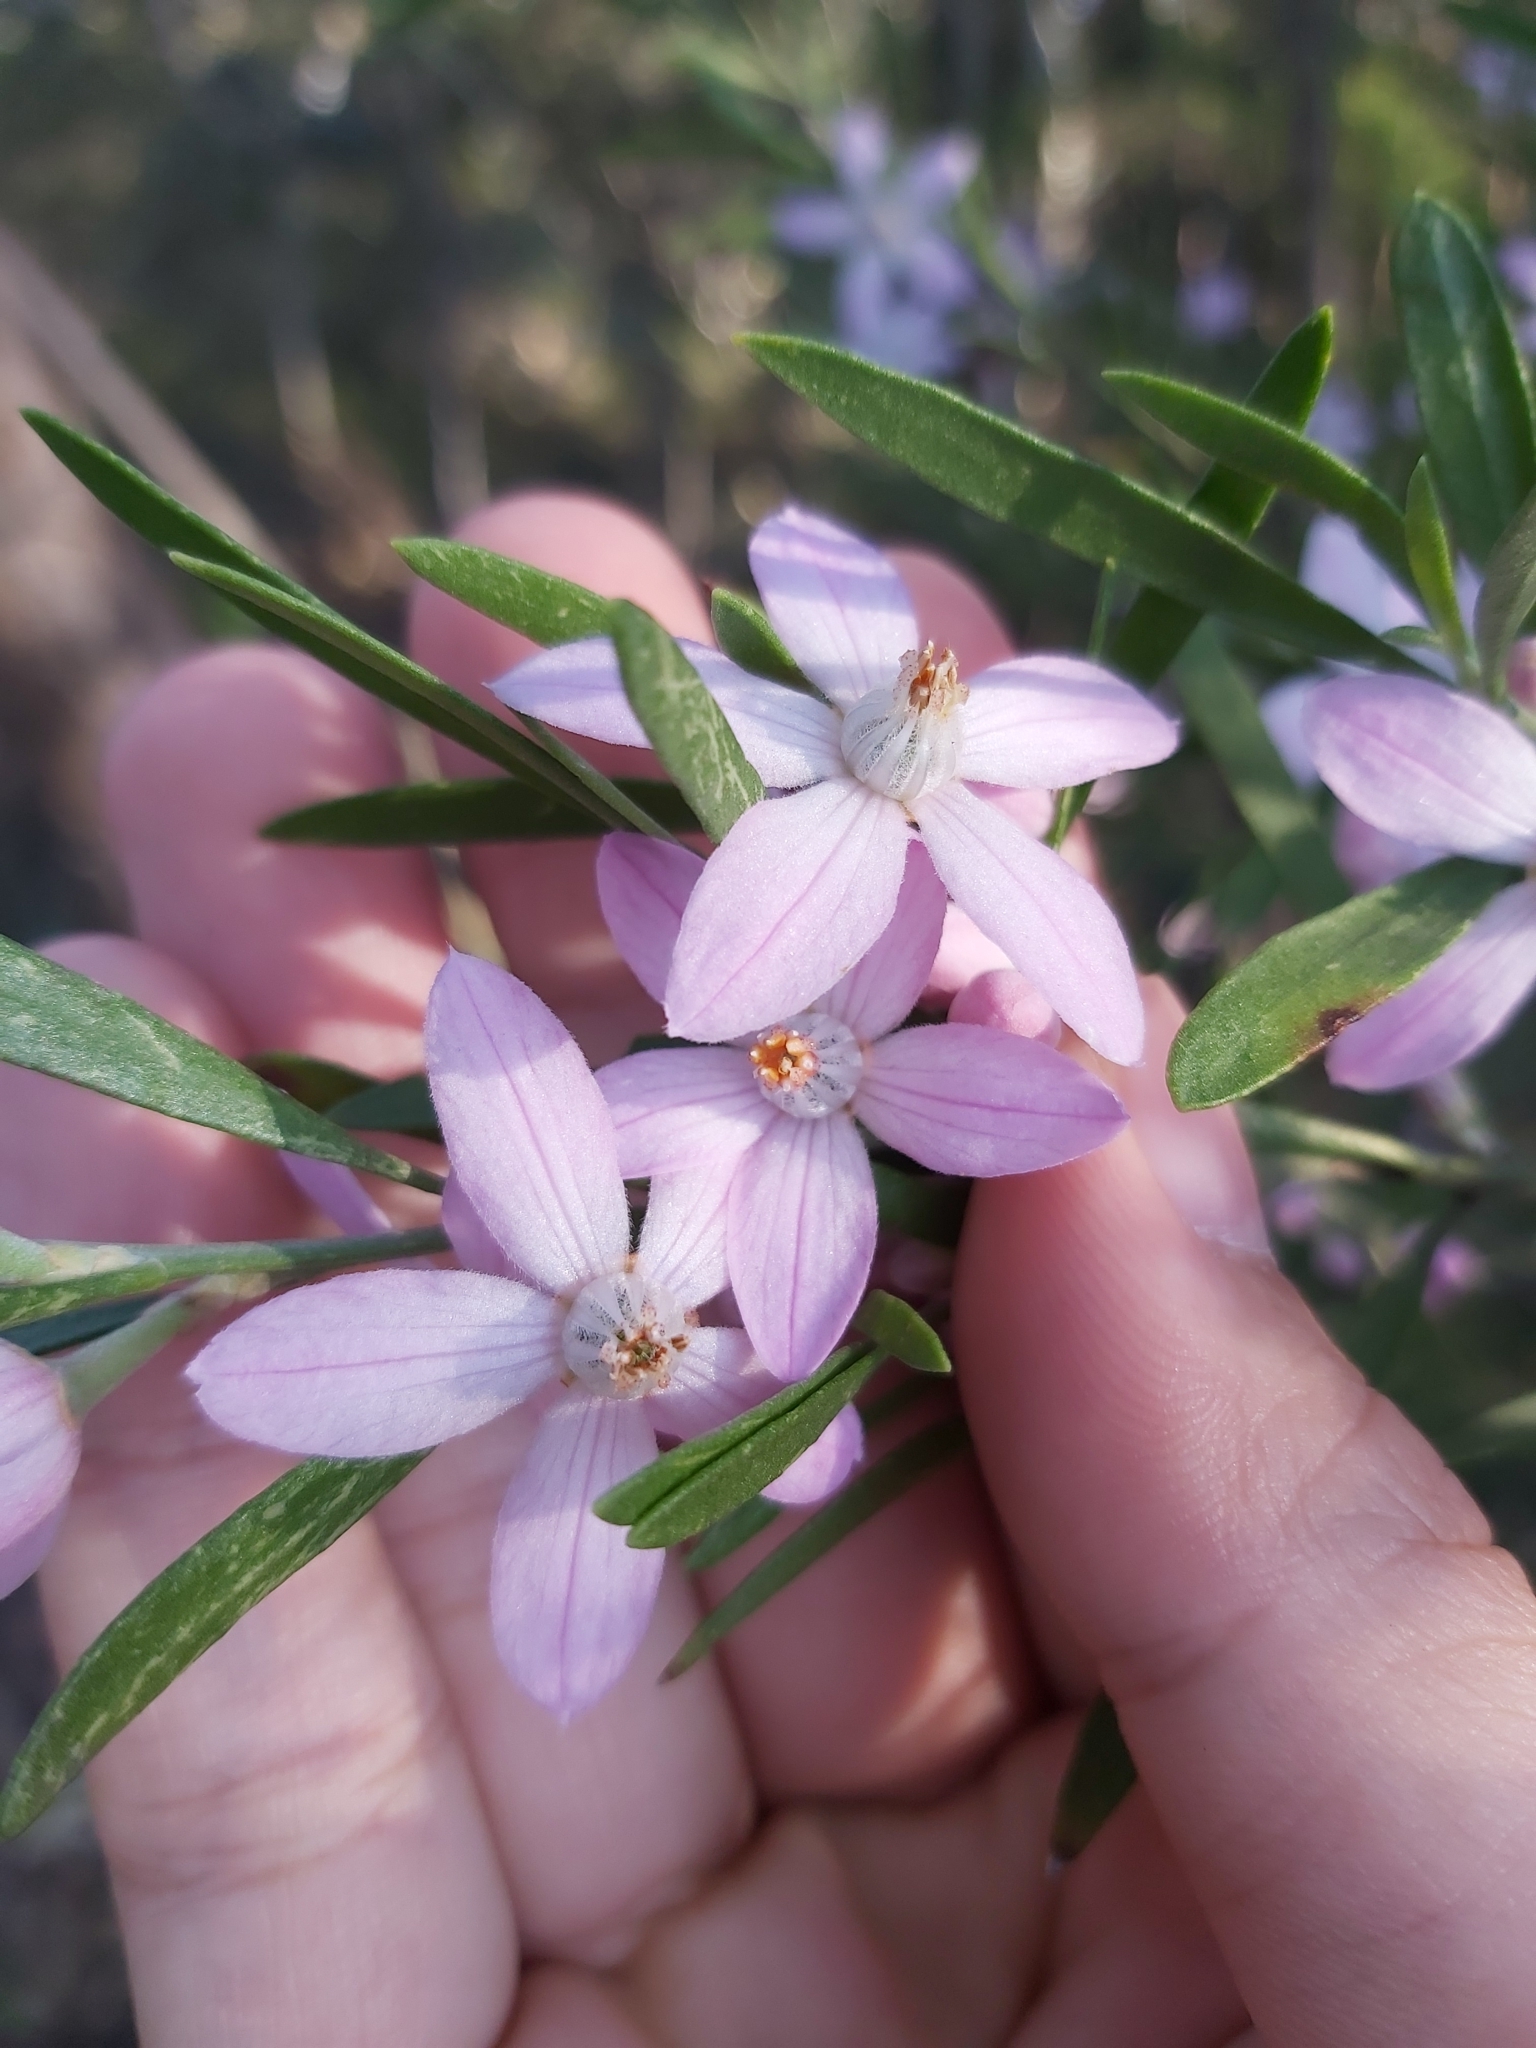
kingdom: Plantae
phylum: Tracheophyta
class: Magnoliopsida
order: Sapindales
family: Rutaceae
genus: Eriostemon
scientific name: Eriostemon australasius
